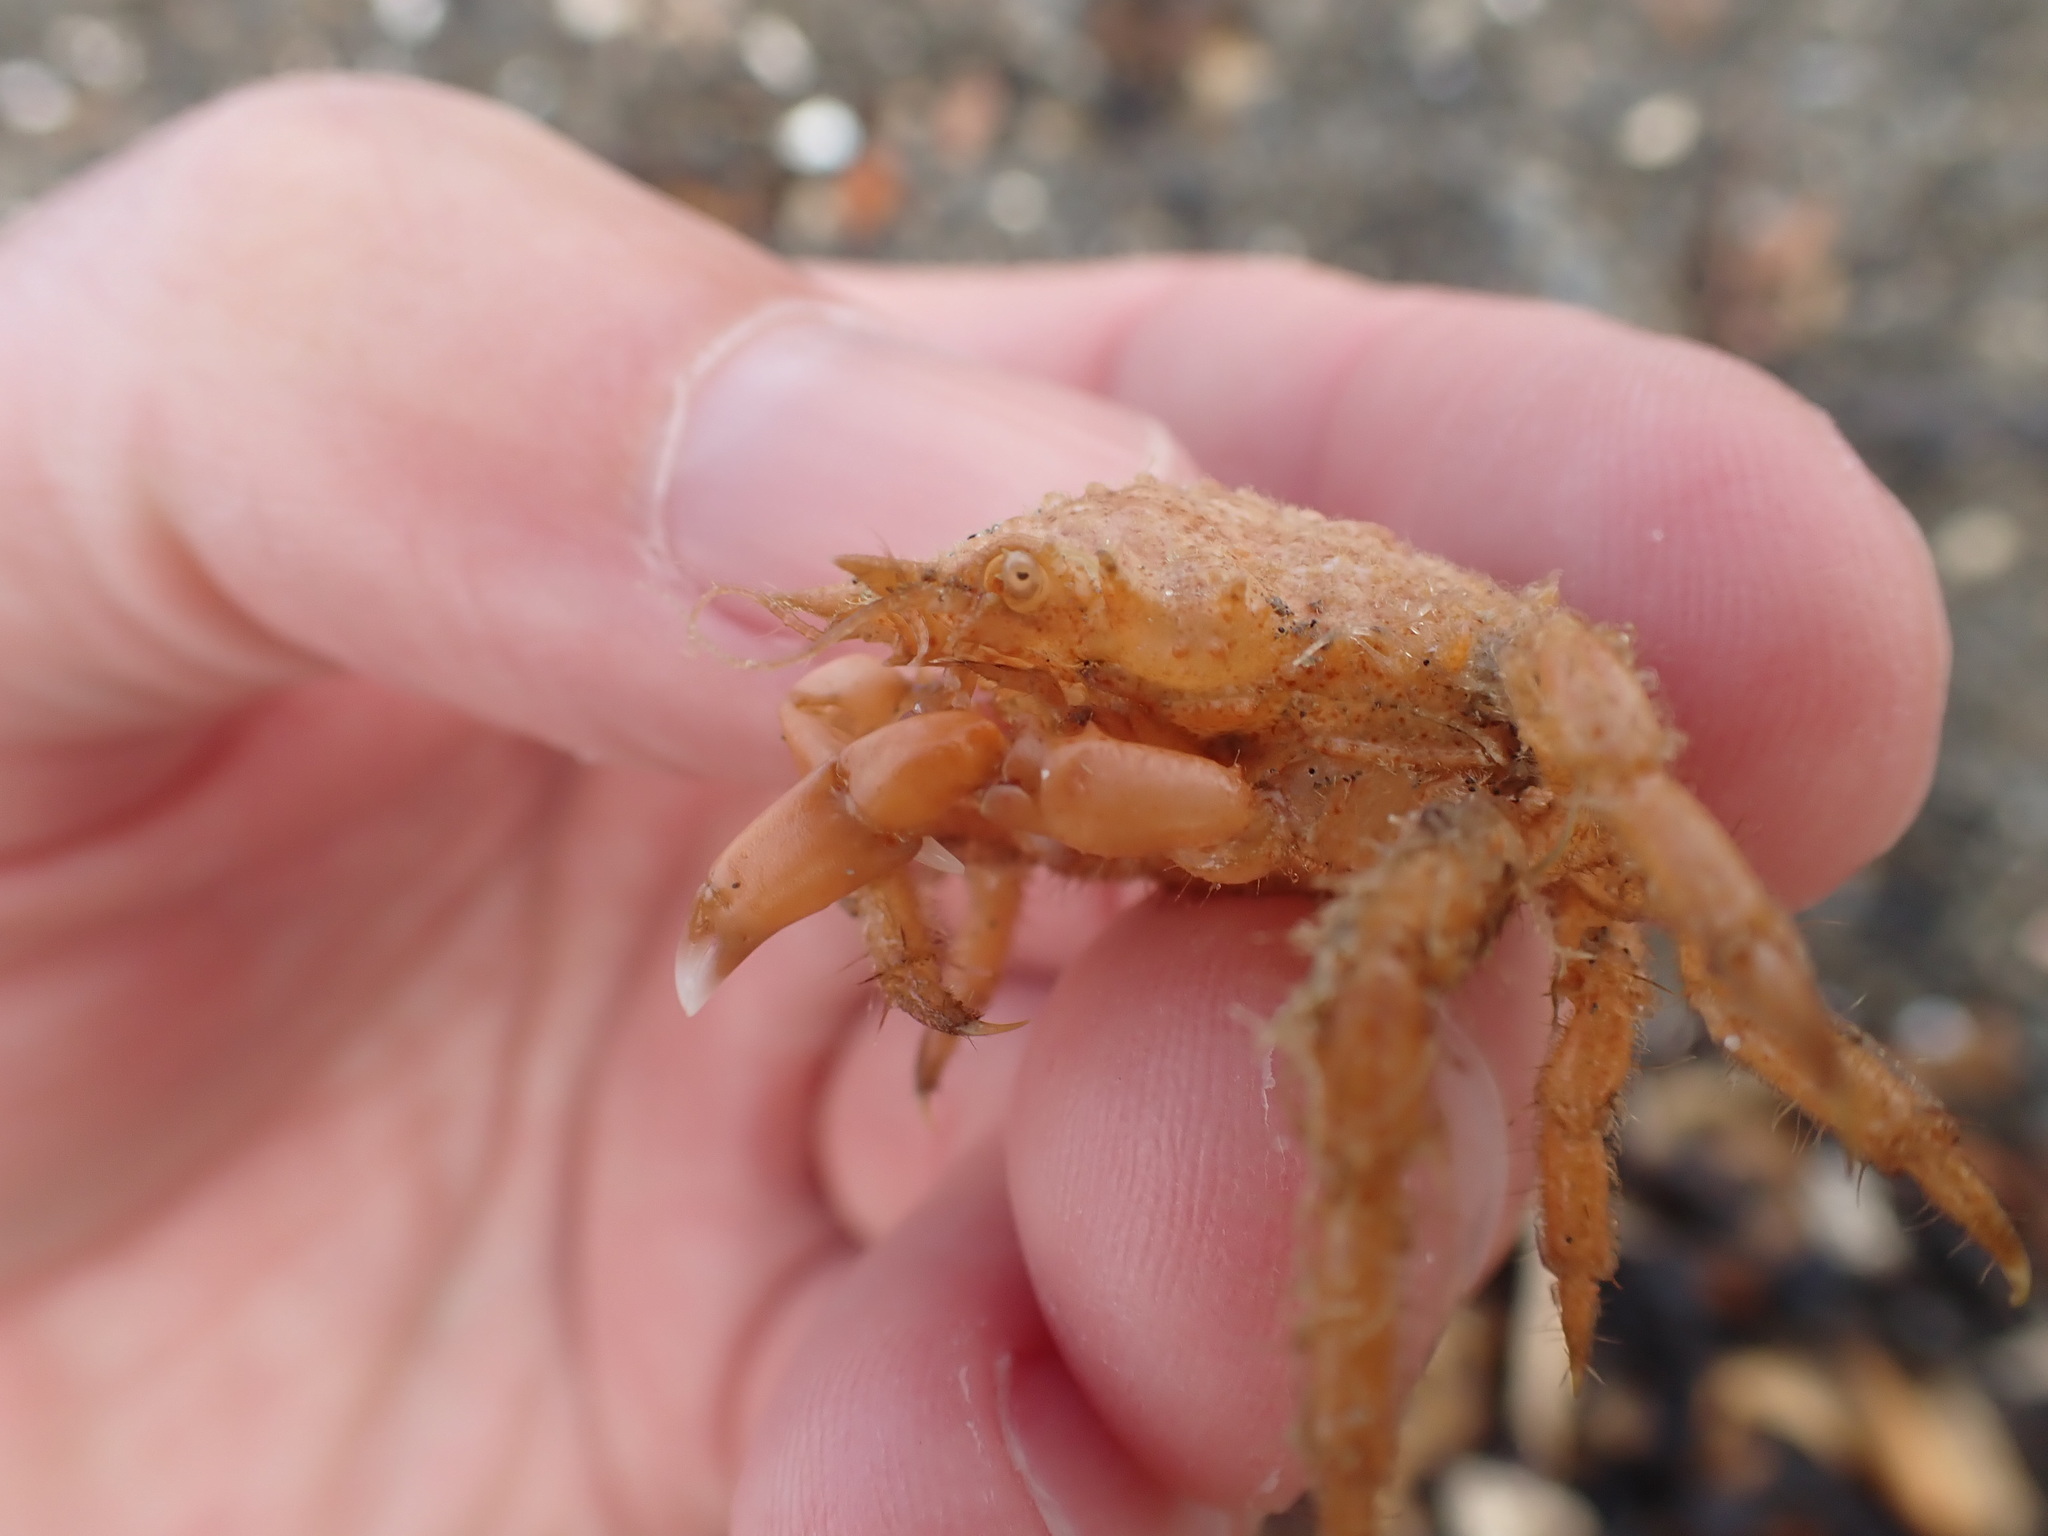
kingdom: Animalia
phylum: Arthropoda
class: Malacostraca
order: Decapoda
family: Majidae
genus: Notomithrax
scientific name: Notomithrax peronii
